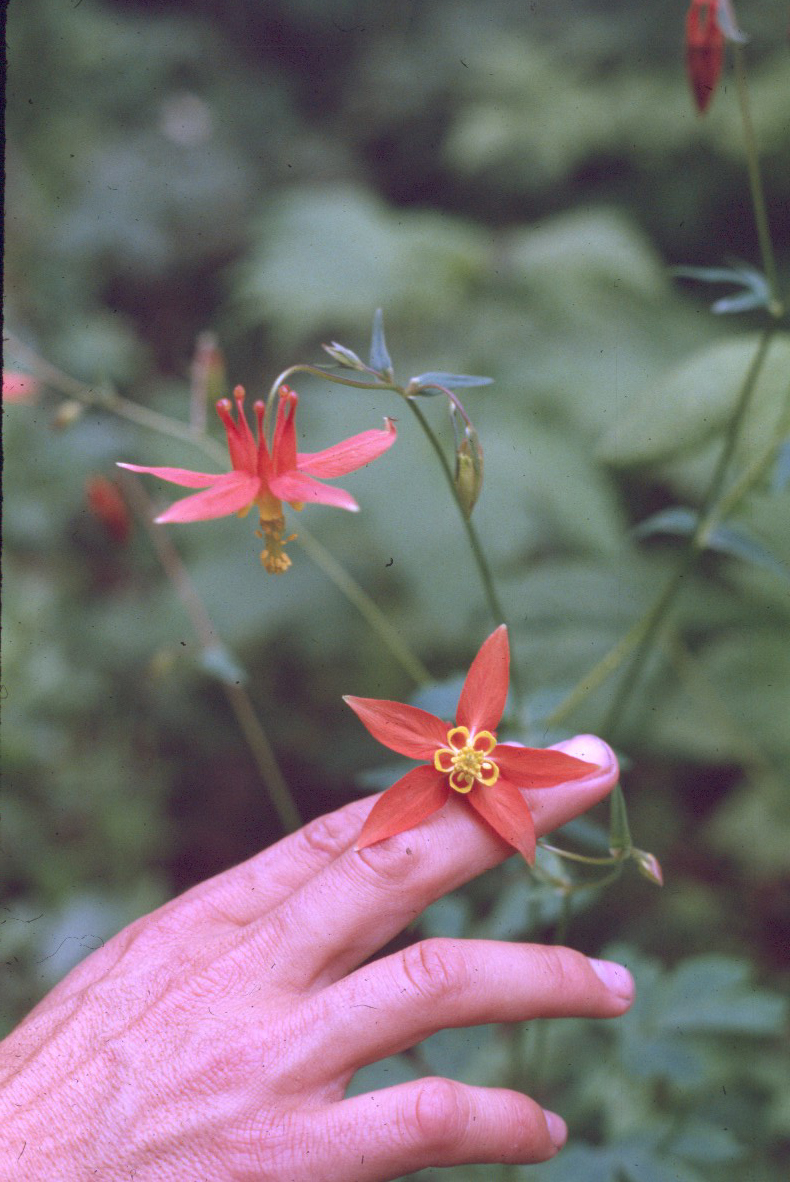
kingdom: Plantae
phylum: Tracheophyta
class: Magnoliopsida
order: Ranunculales
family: Ranunculaceae
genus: Aquilegia
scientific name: Aquilegia formosa
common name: Sitka columbine
